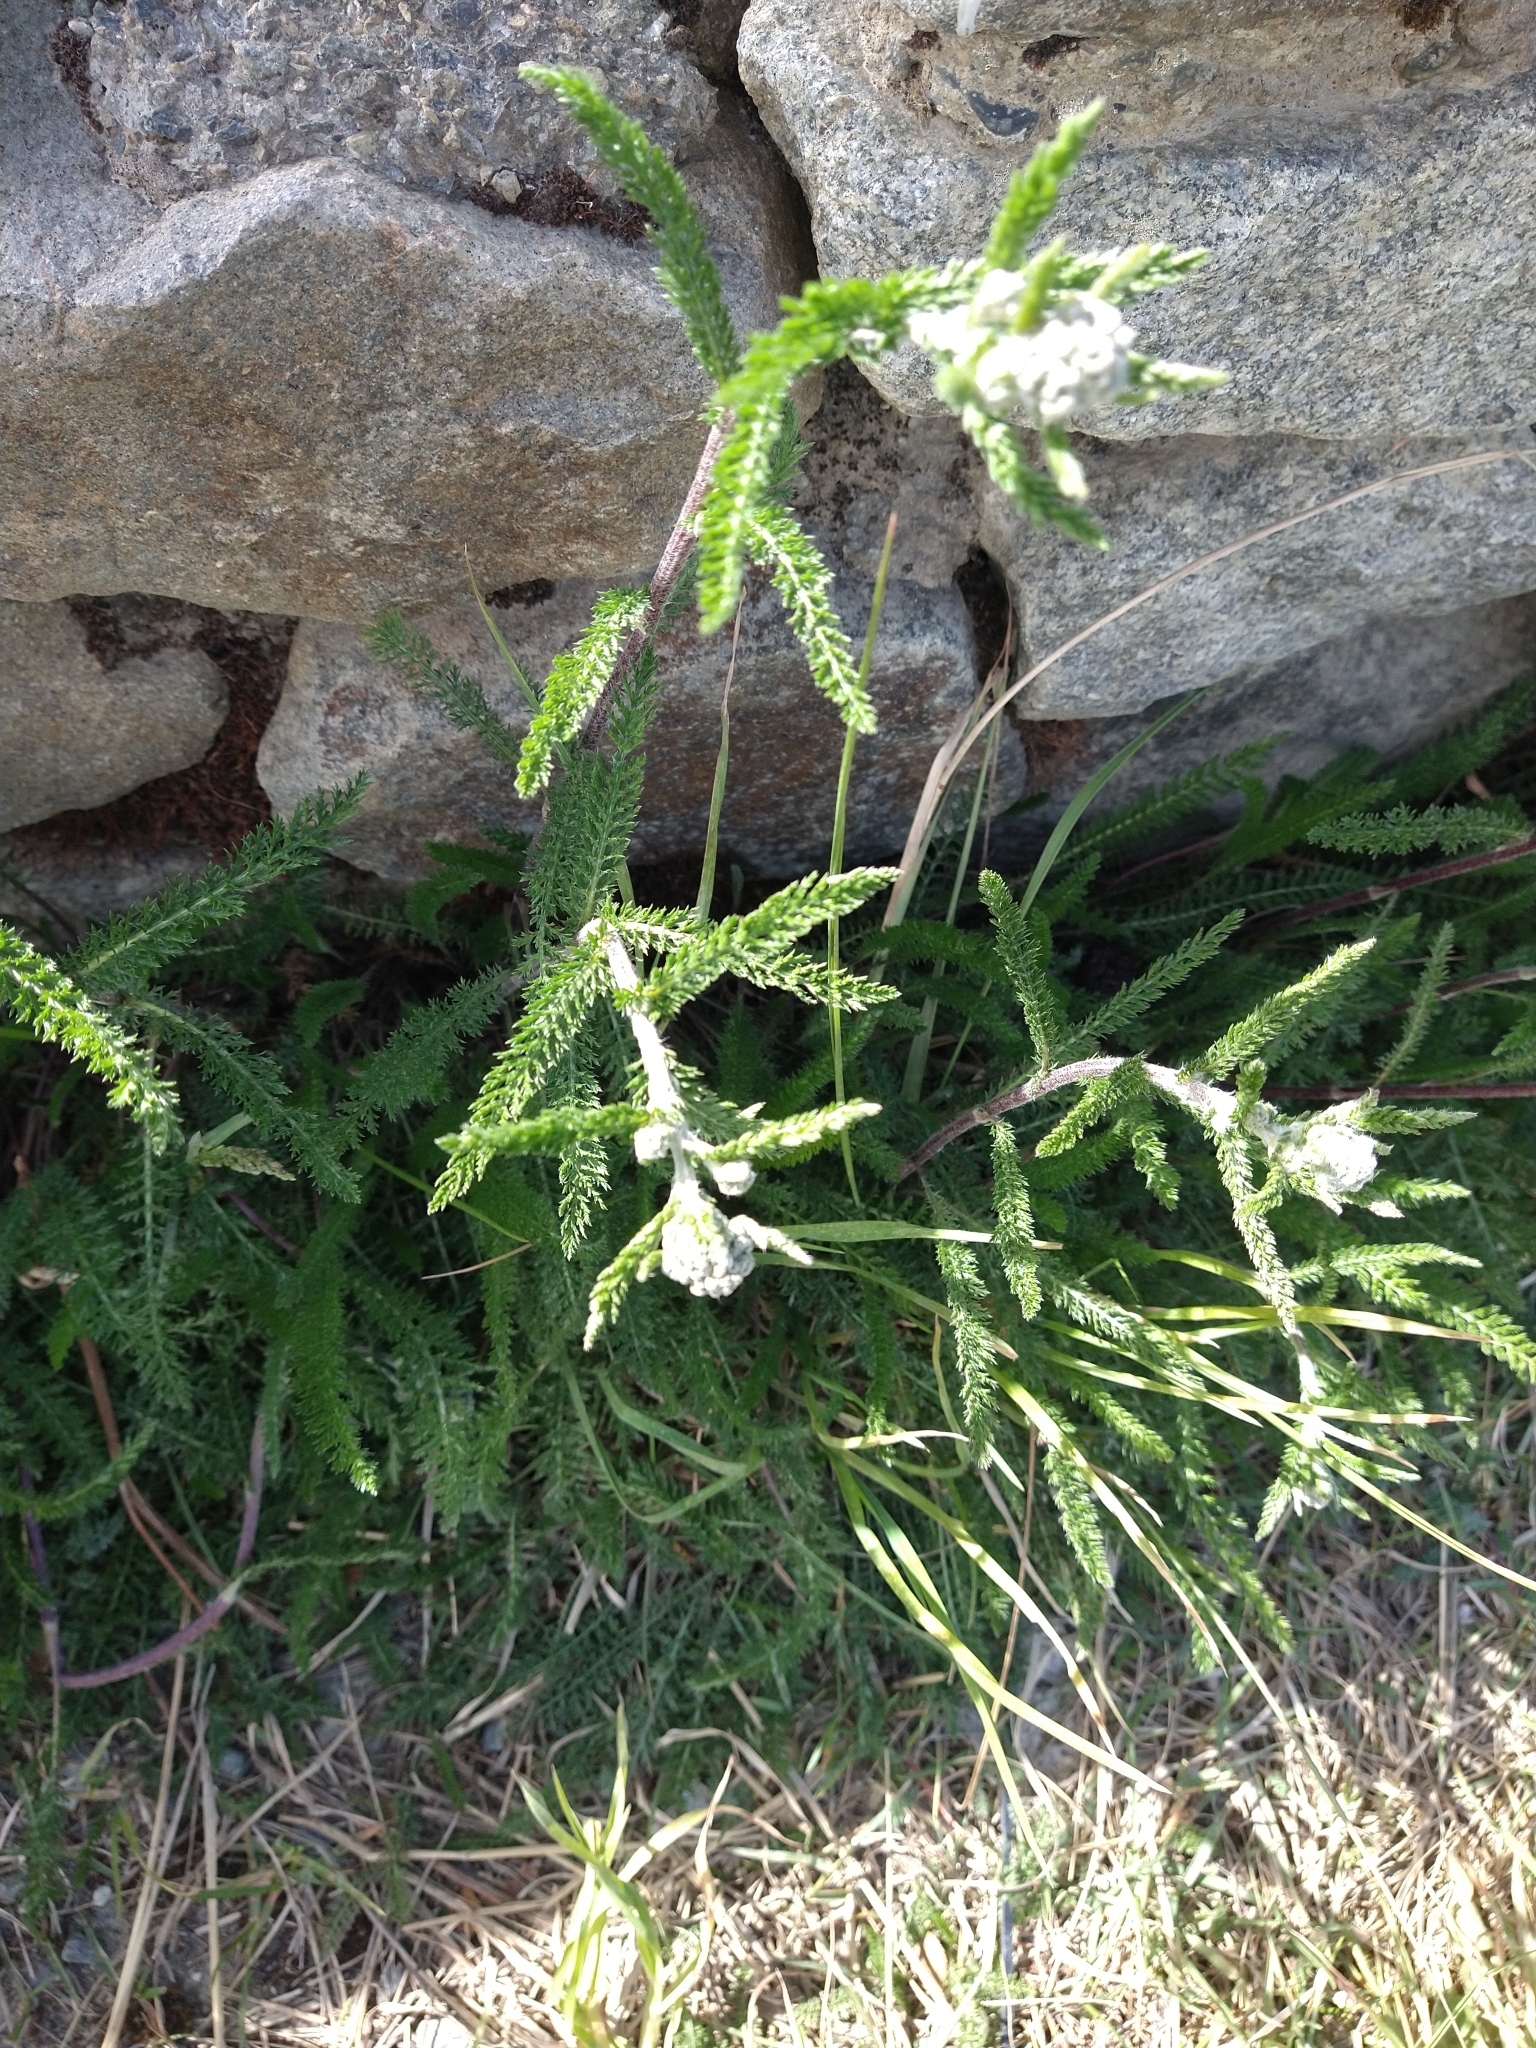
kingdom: Plantae
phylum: Tracheophyta
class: Magnoliopsida
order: Asterales
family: Asteraceae
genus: Achillea
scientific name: Achillea millefolium
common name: Yarrow
